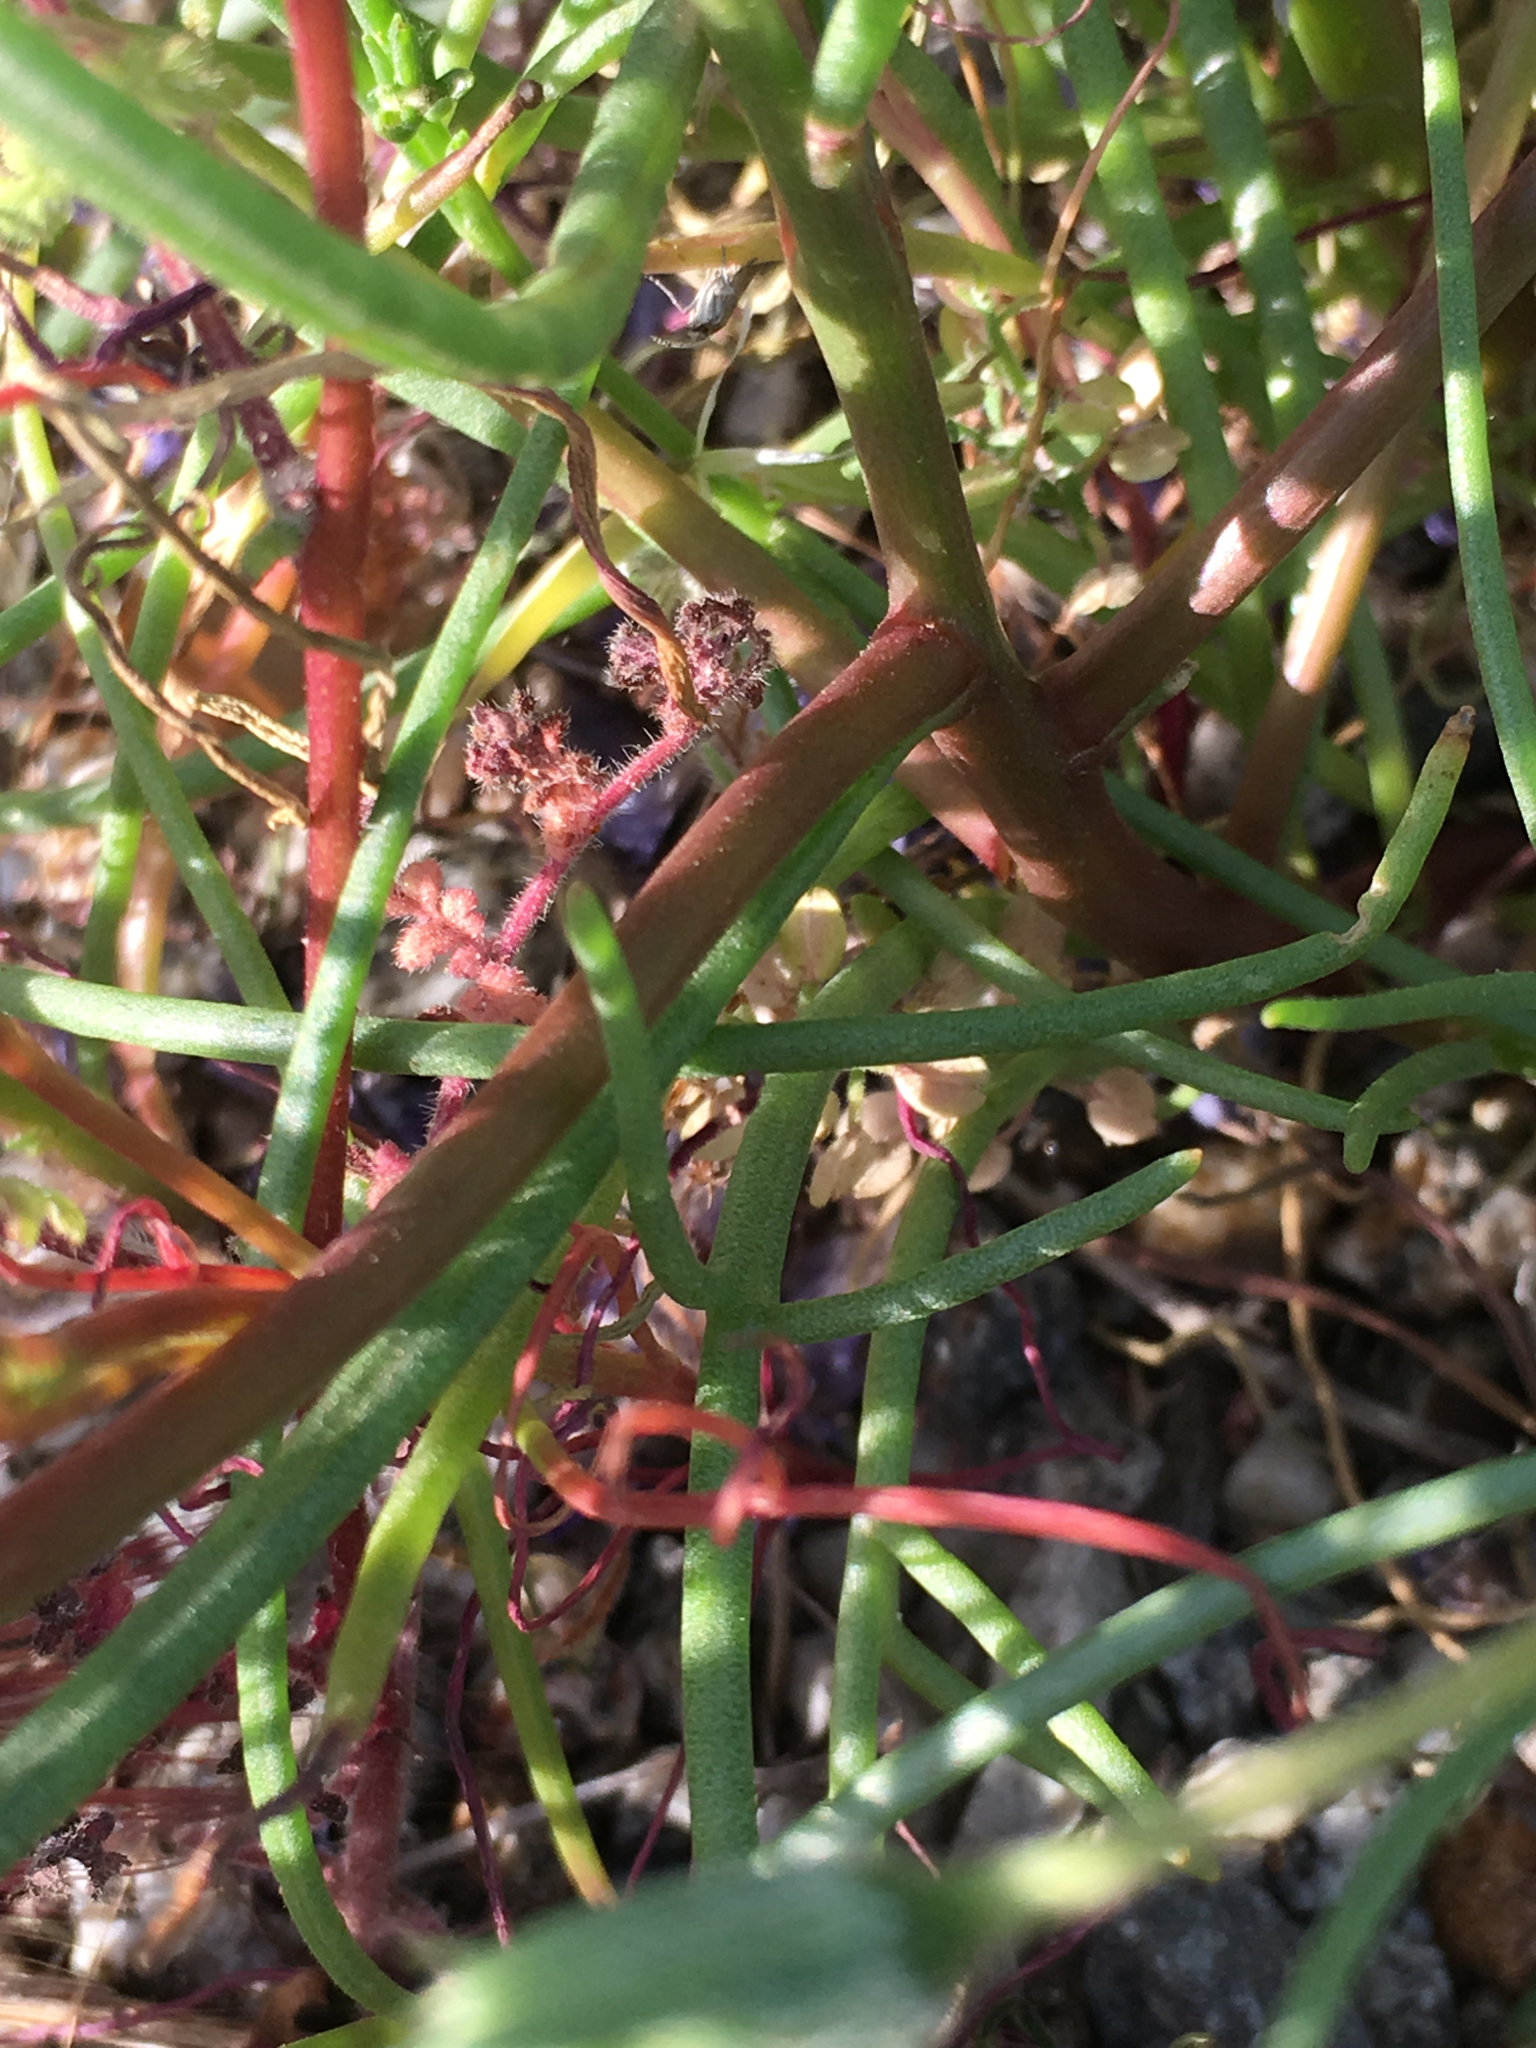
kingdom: Plantae
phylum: Tracheophyta
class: Magnoliopsida
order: Asterales
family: Asteraceae
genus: Chaenactis
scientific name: Chaenactis fremontii
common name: Fremont pincushion
